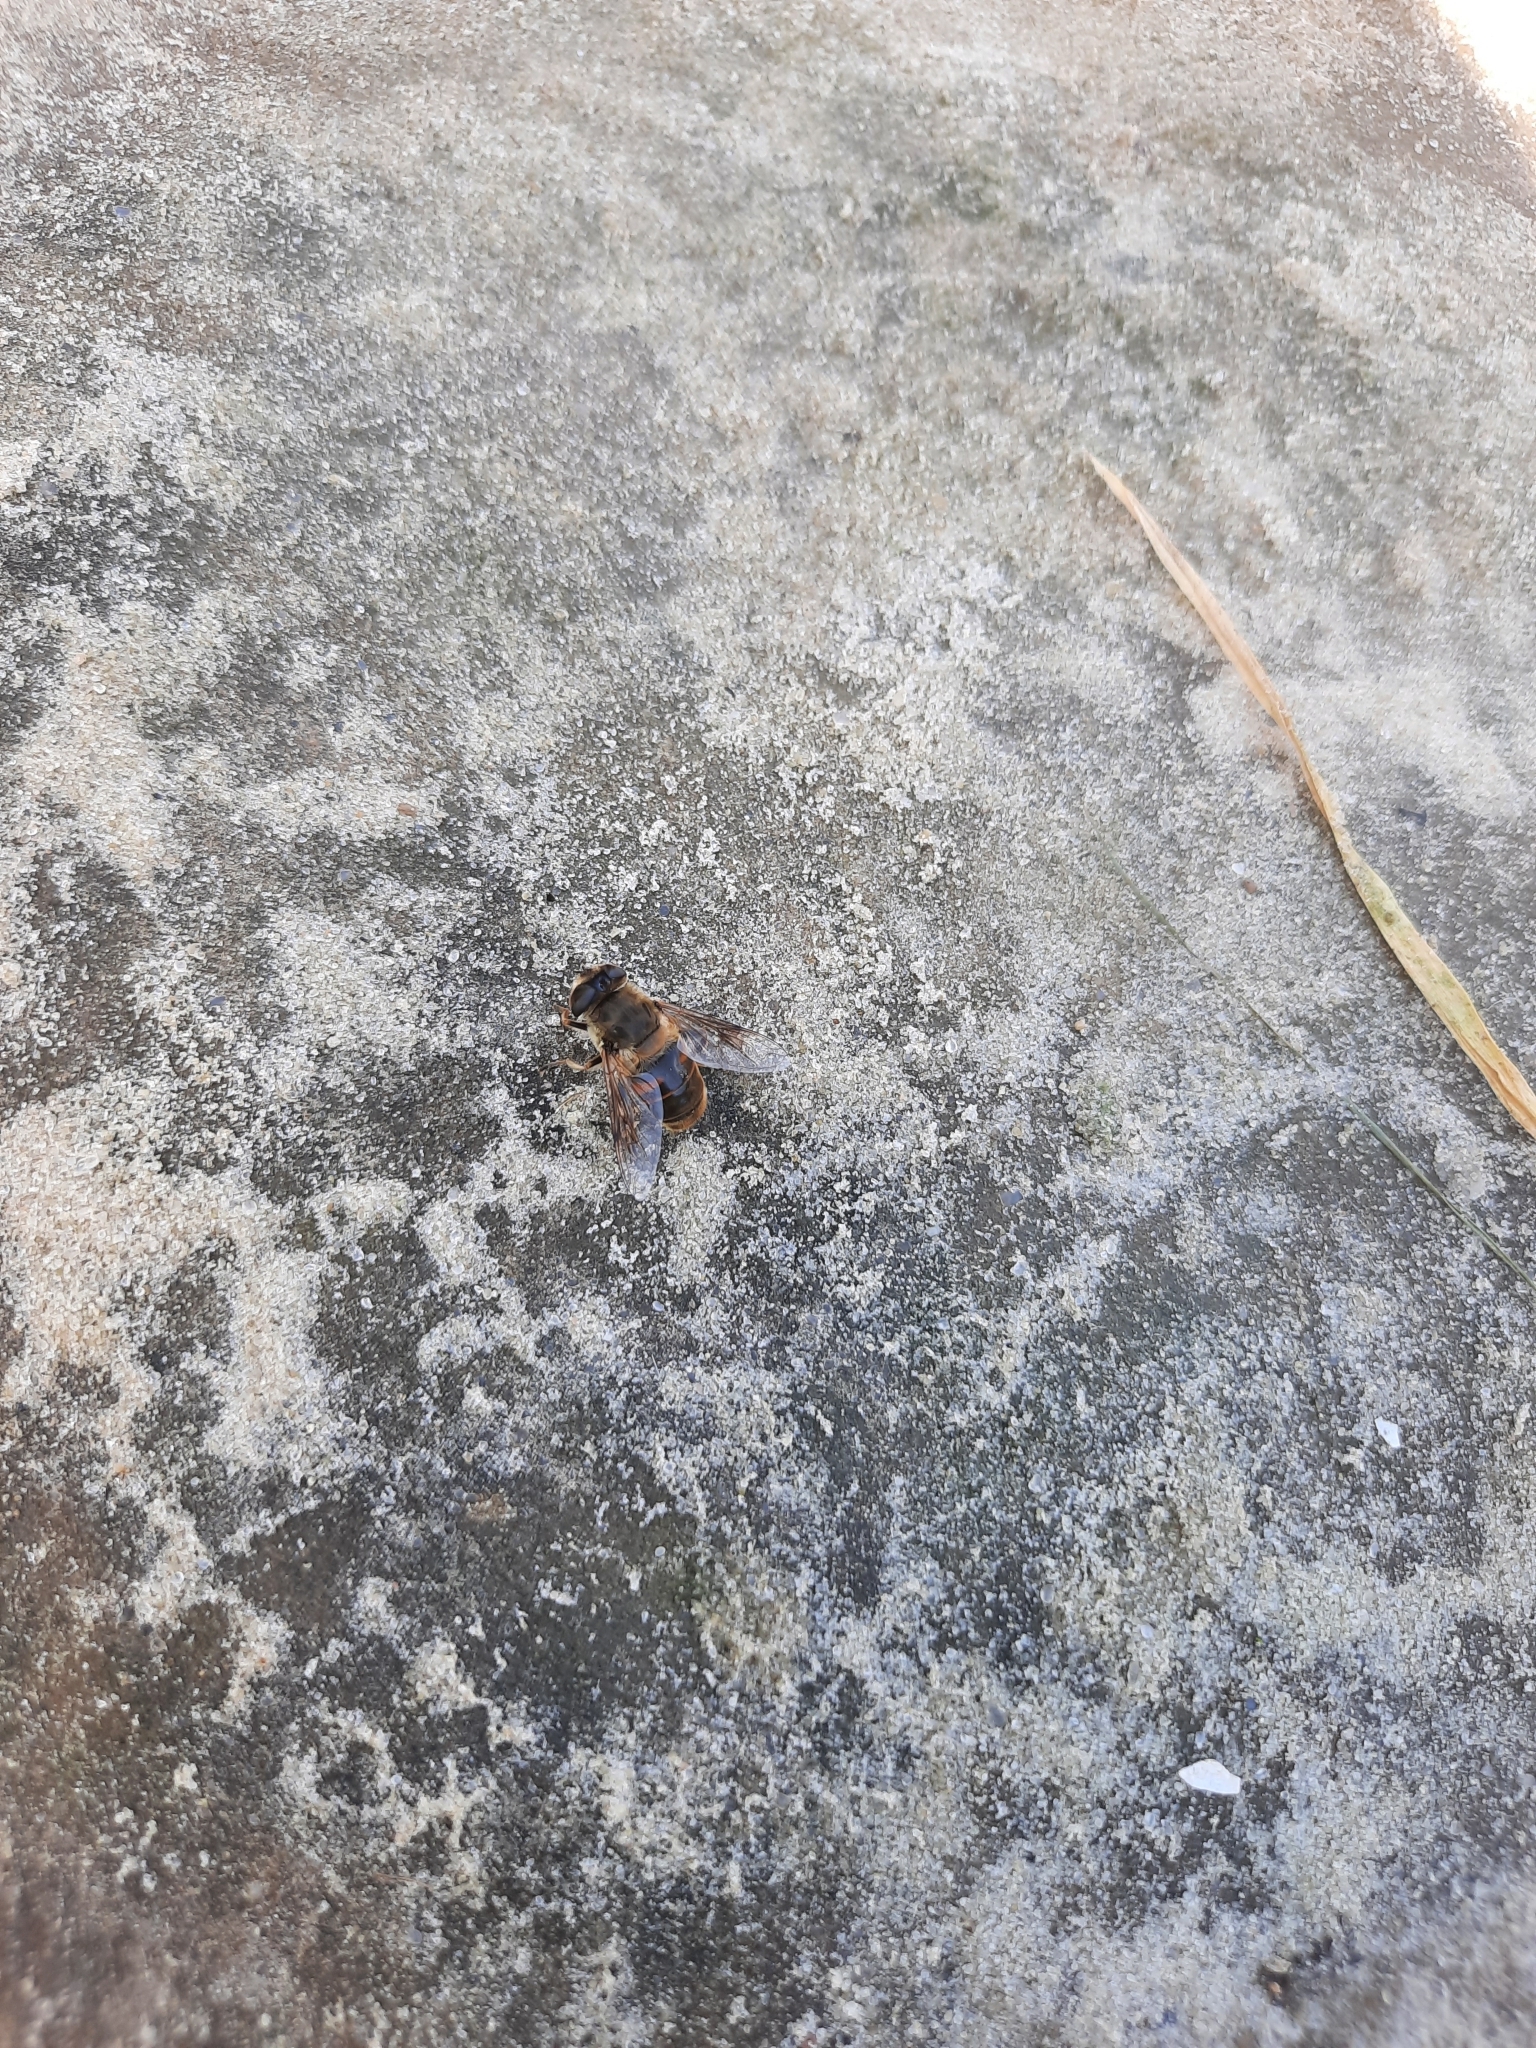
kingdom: Animalia
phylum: Arthropoda
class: Insecta
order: Diptera
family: Syrphidae
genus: Eristalis
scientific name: Eristalis tenax
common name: Drone fly
